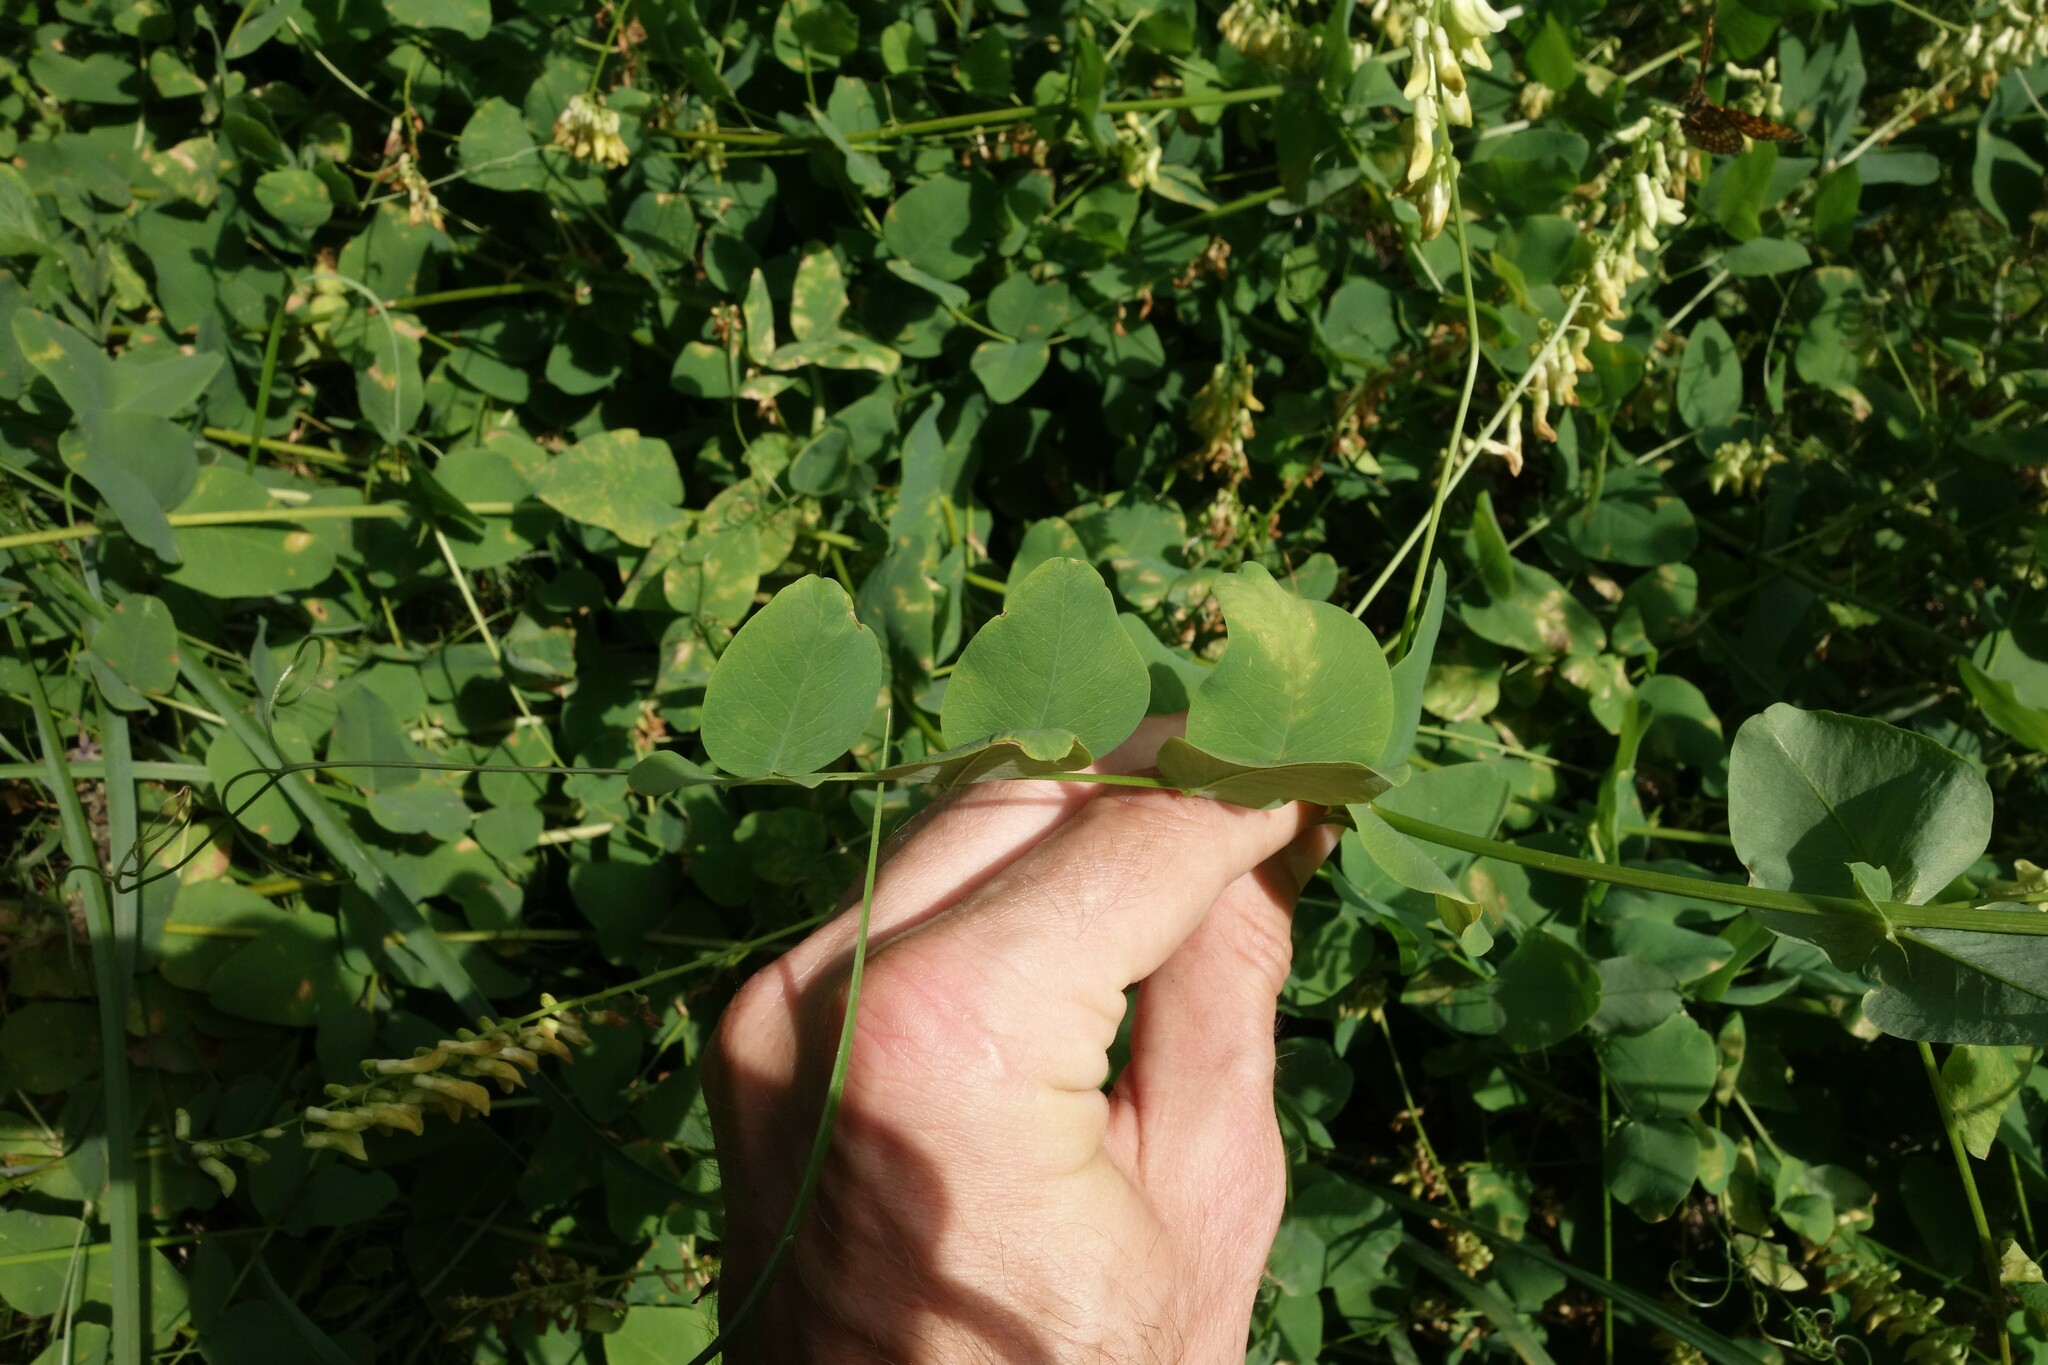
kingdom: Plantae
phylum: Tracheophyta
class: Magnoliopsida
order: Fabales
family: Fabaceae
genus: Vicia
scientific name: Vicia pisiformis
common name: Pale-flower vetch
